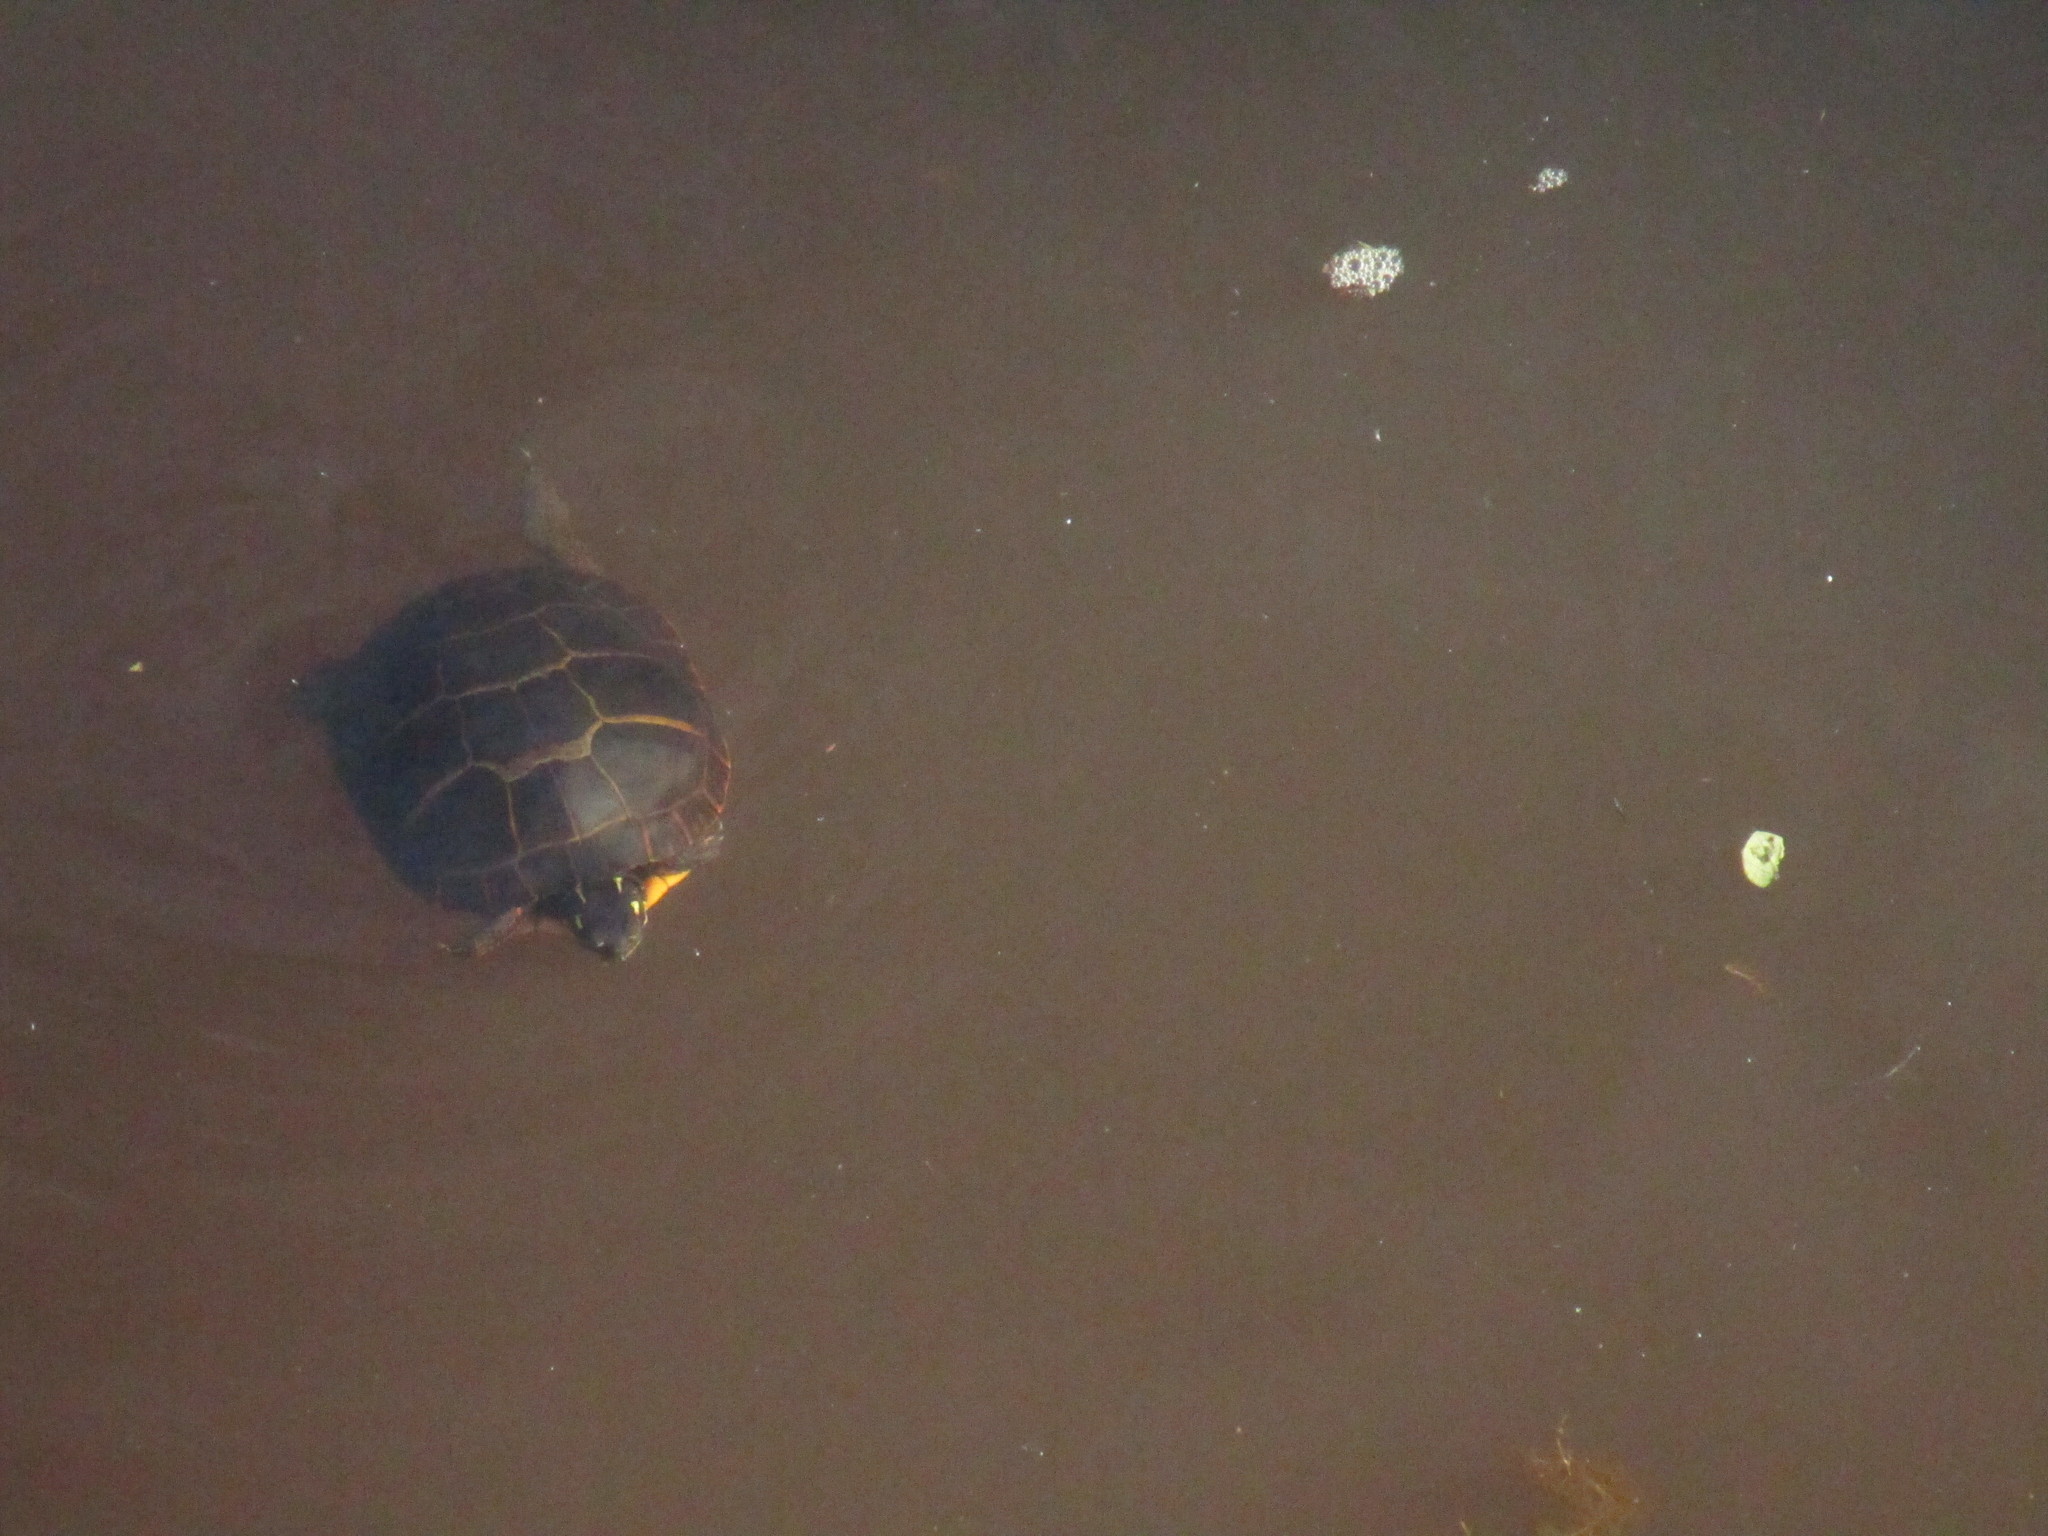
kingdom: Animalia
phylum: Chordata
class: Testudines
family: Emydidae
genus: Chrysemys
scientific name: Chrysemys picta
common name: Painted turtle
